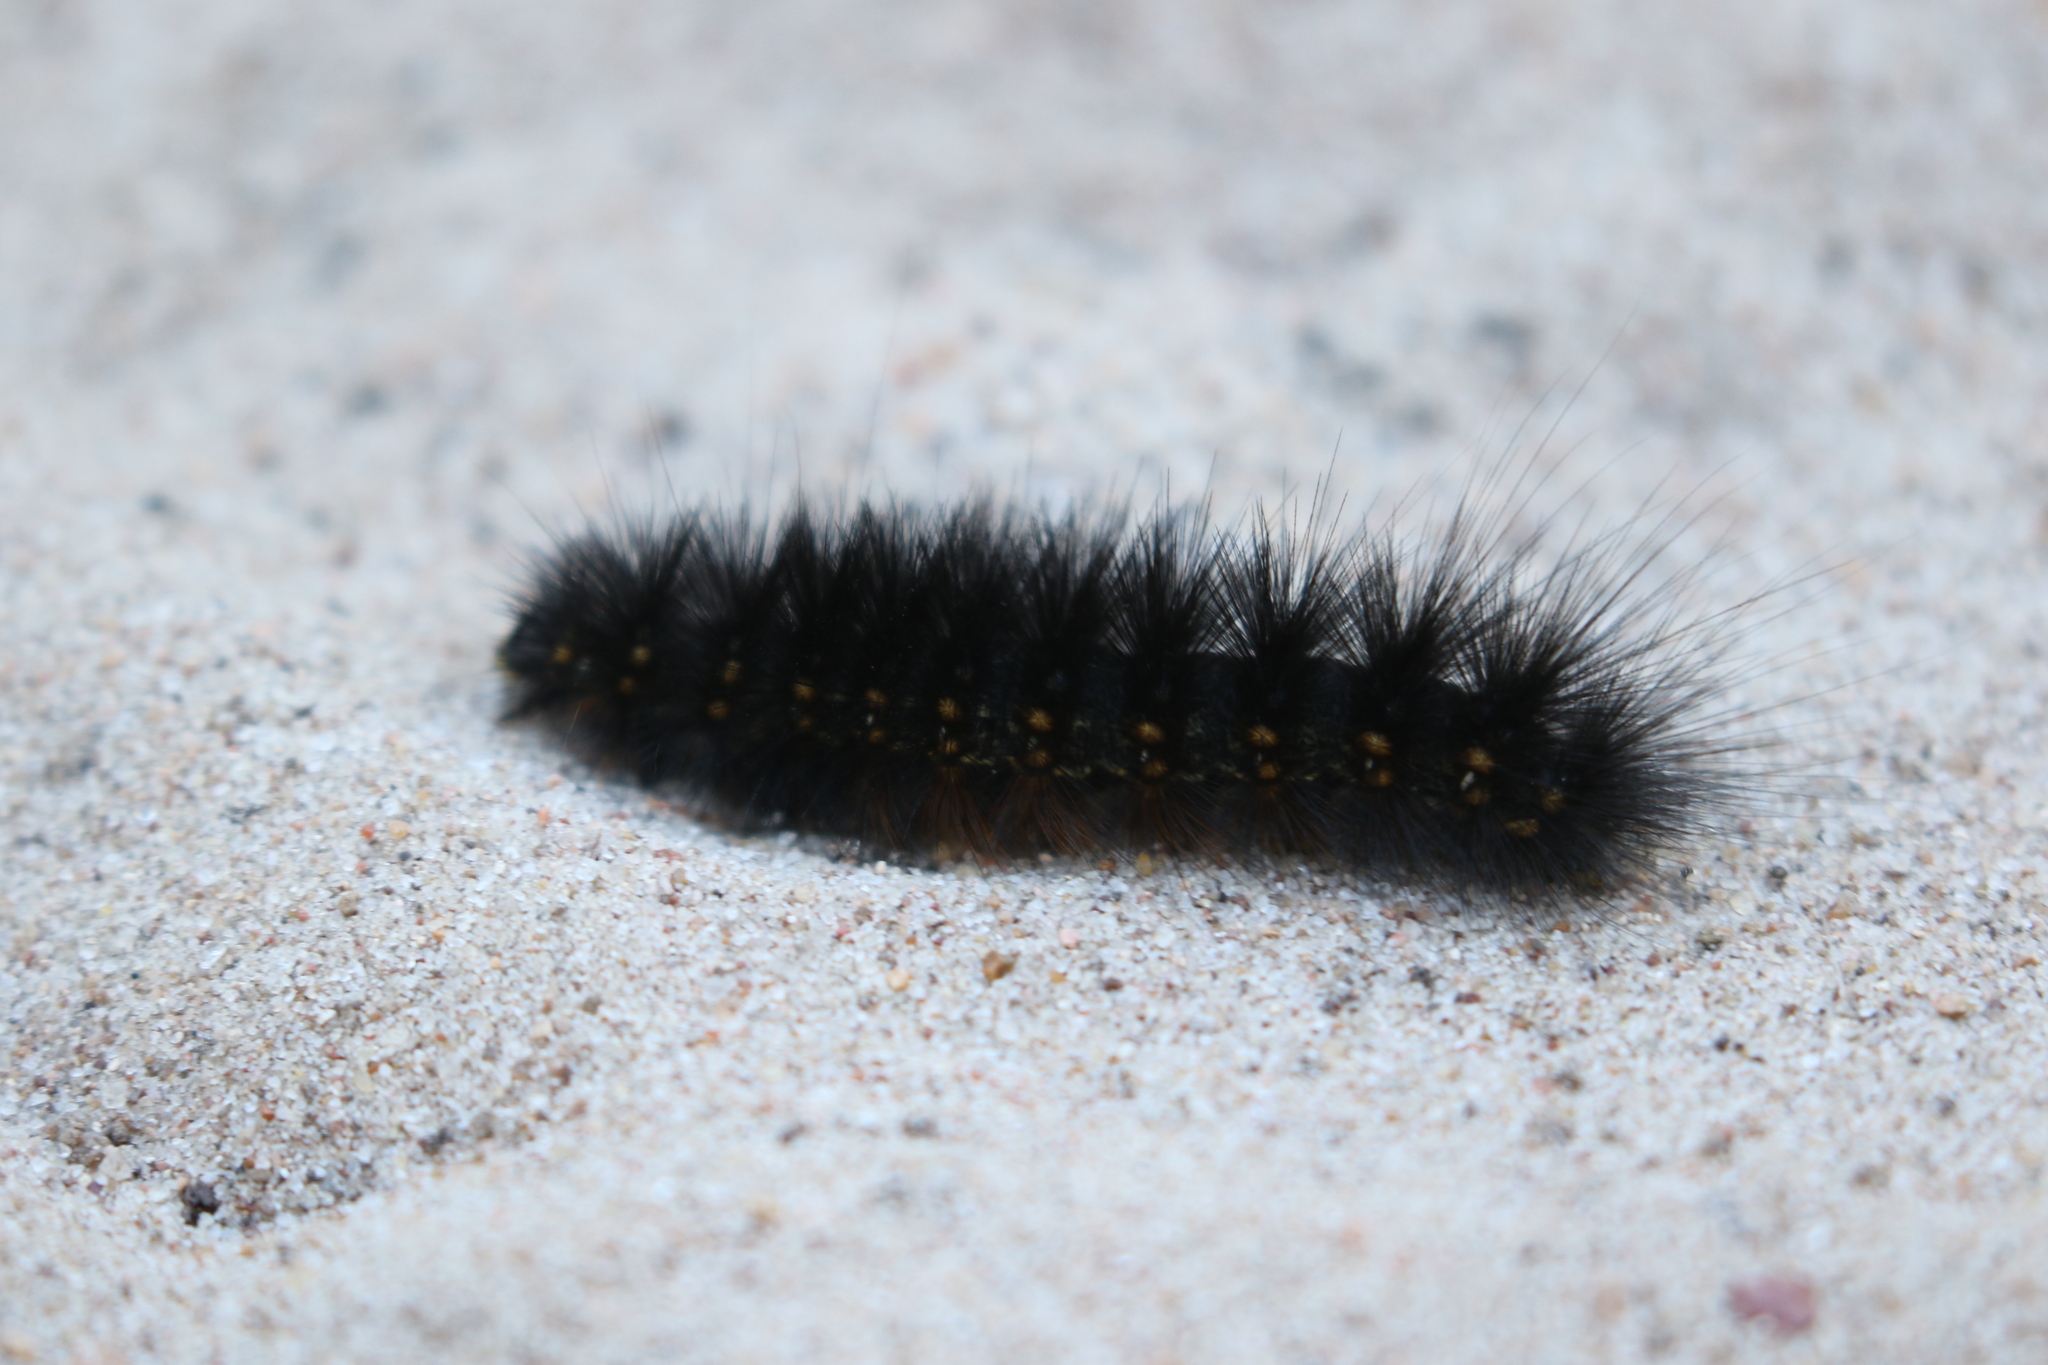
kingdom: Animalia
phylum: Arthropoda
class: Insecta
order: Lepidoptera
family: Erebidae
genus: Estigmene
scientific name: Estigmene acrea
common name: Salt marsh moth
